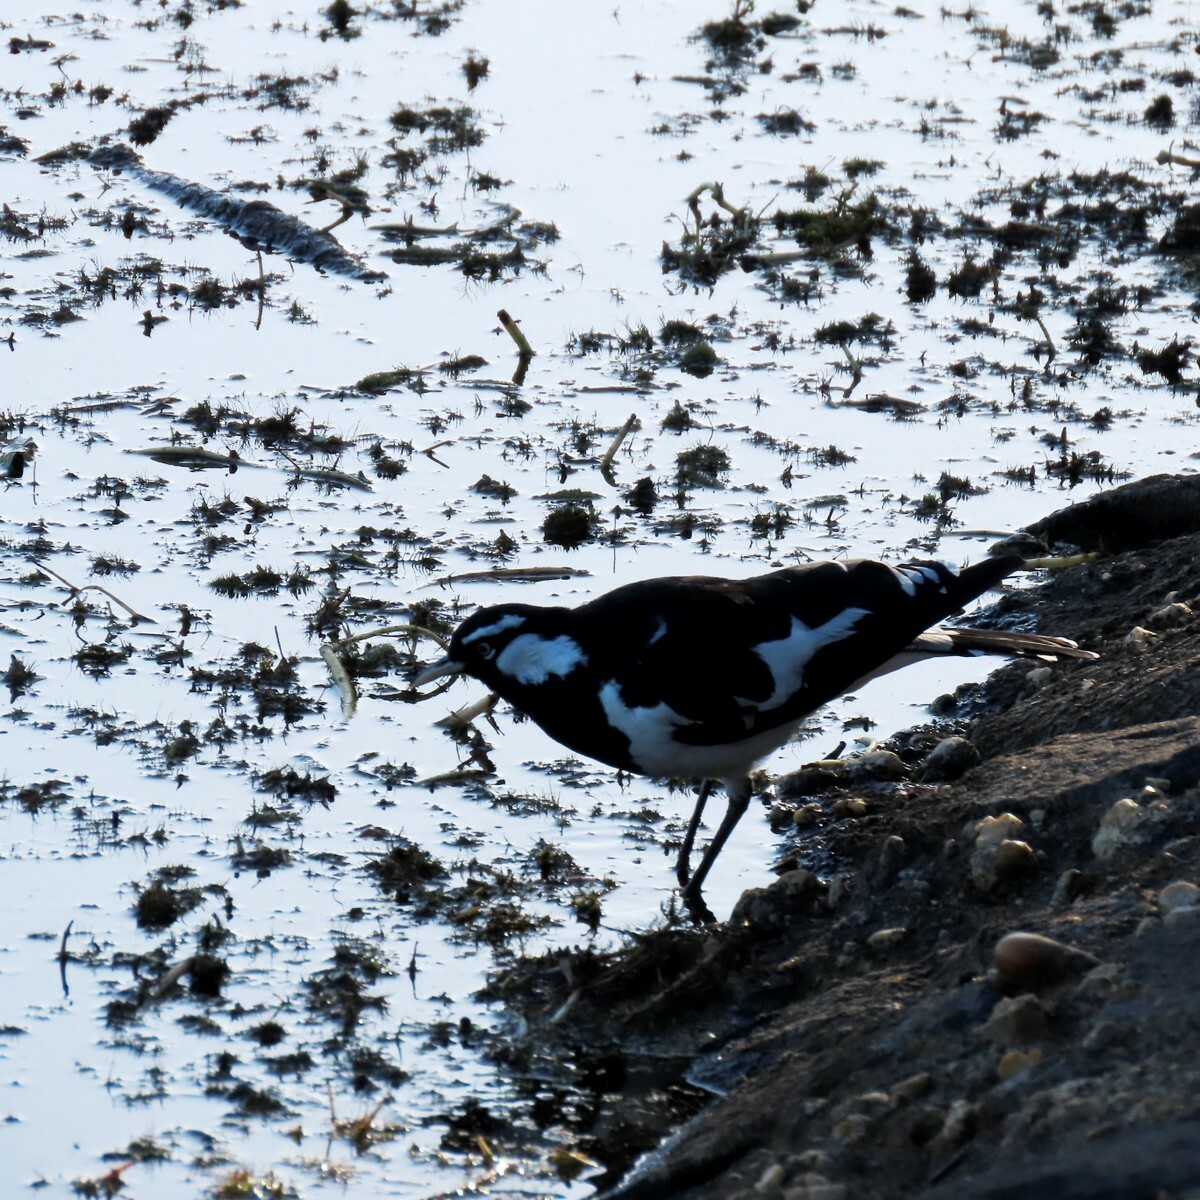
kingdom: Animalia
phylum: Chordata
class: Aves
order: Passeriformes
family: Monarchidae
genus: Grallina
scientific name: Grallina cyanoleuca
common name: Magpie-lark
